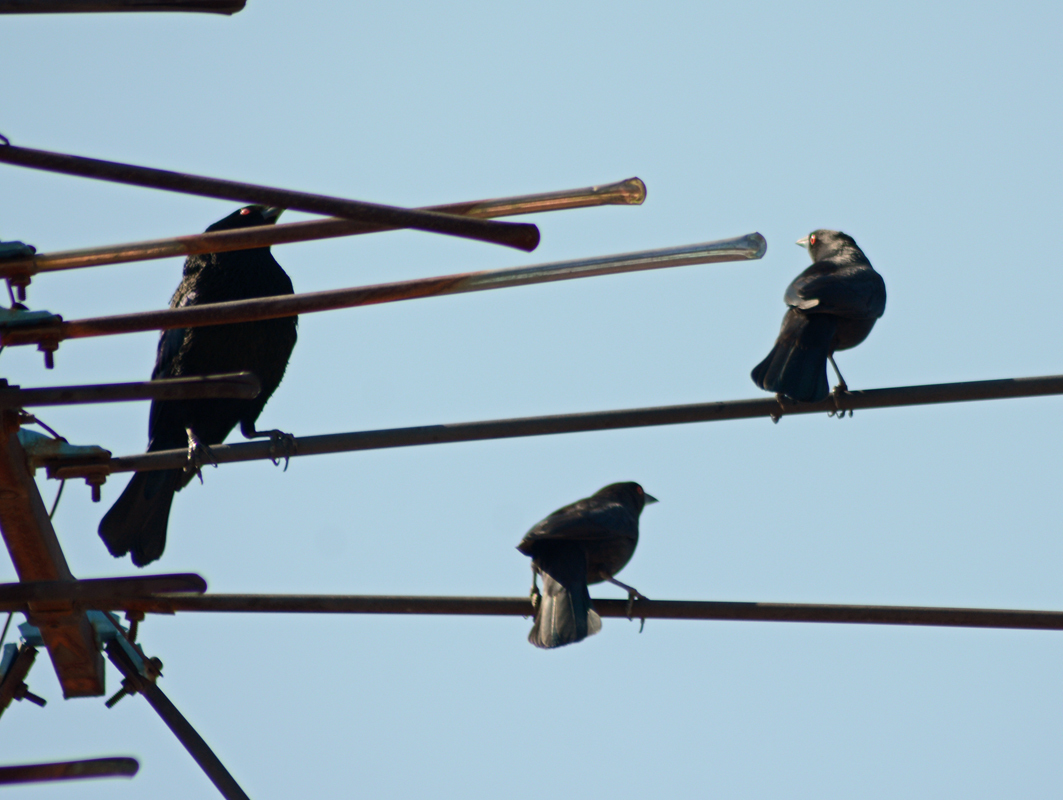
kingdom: Animalia
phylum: Chordata
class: Aves
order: Passeriformes
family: Icteridae
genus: Molothrus
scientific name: Molothrus aeneus
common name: Bronzed cowbird
